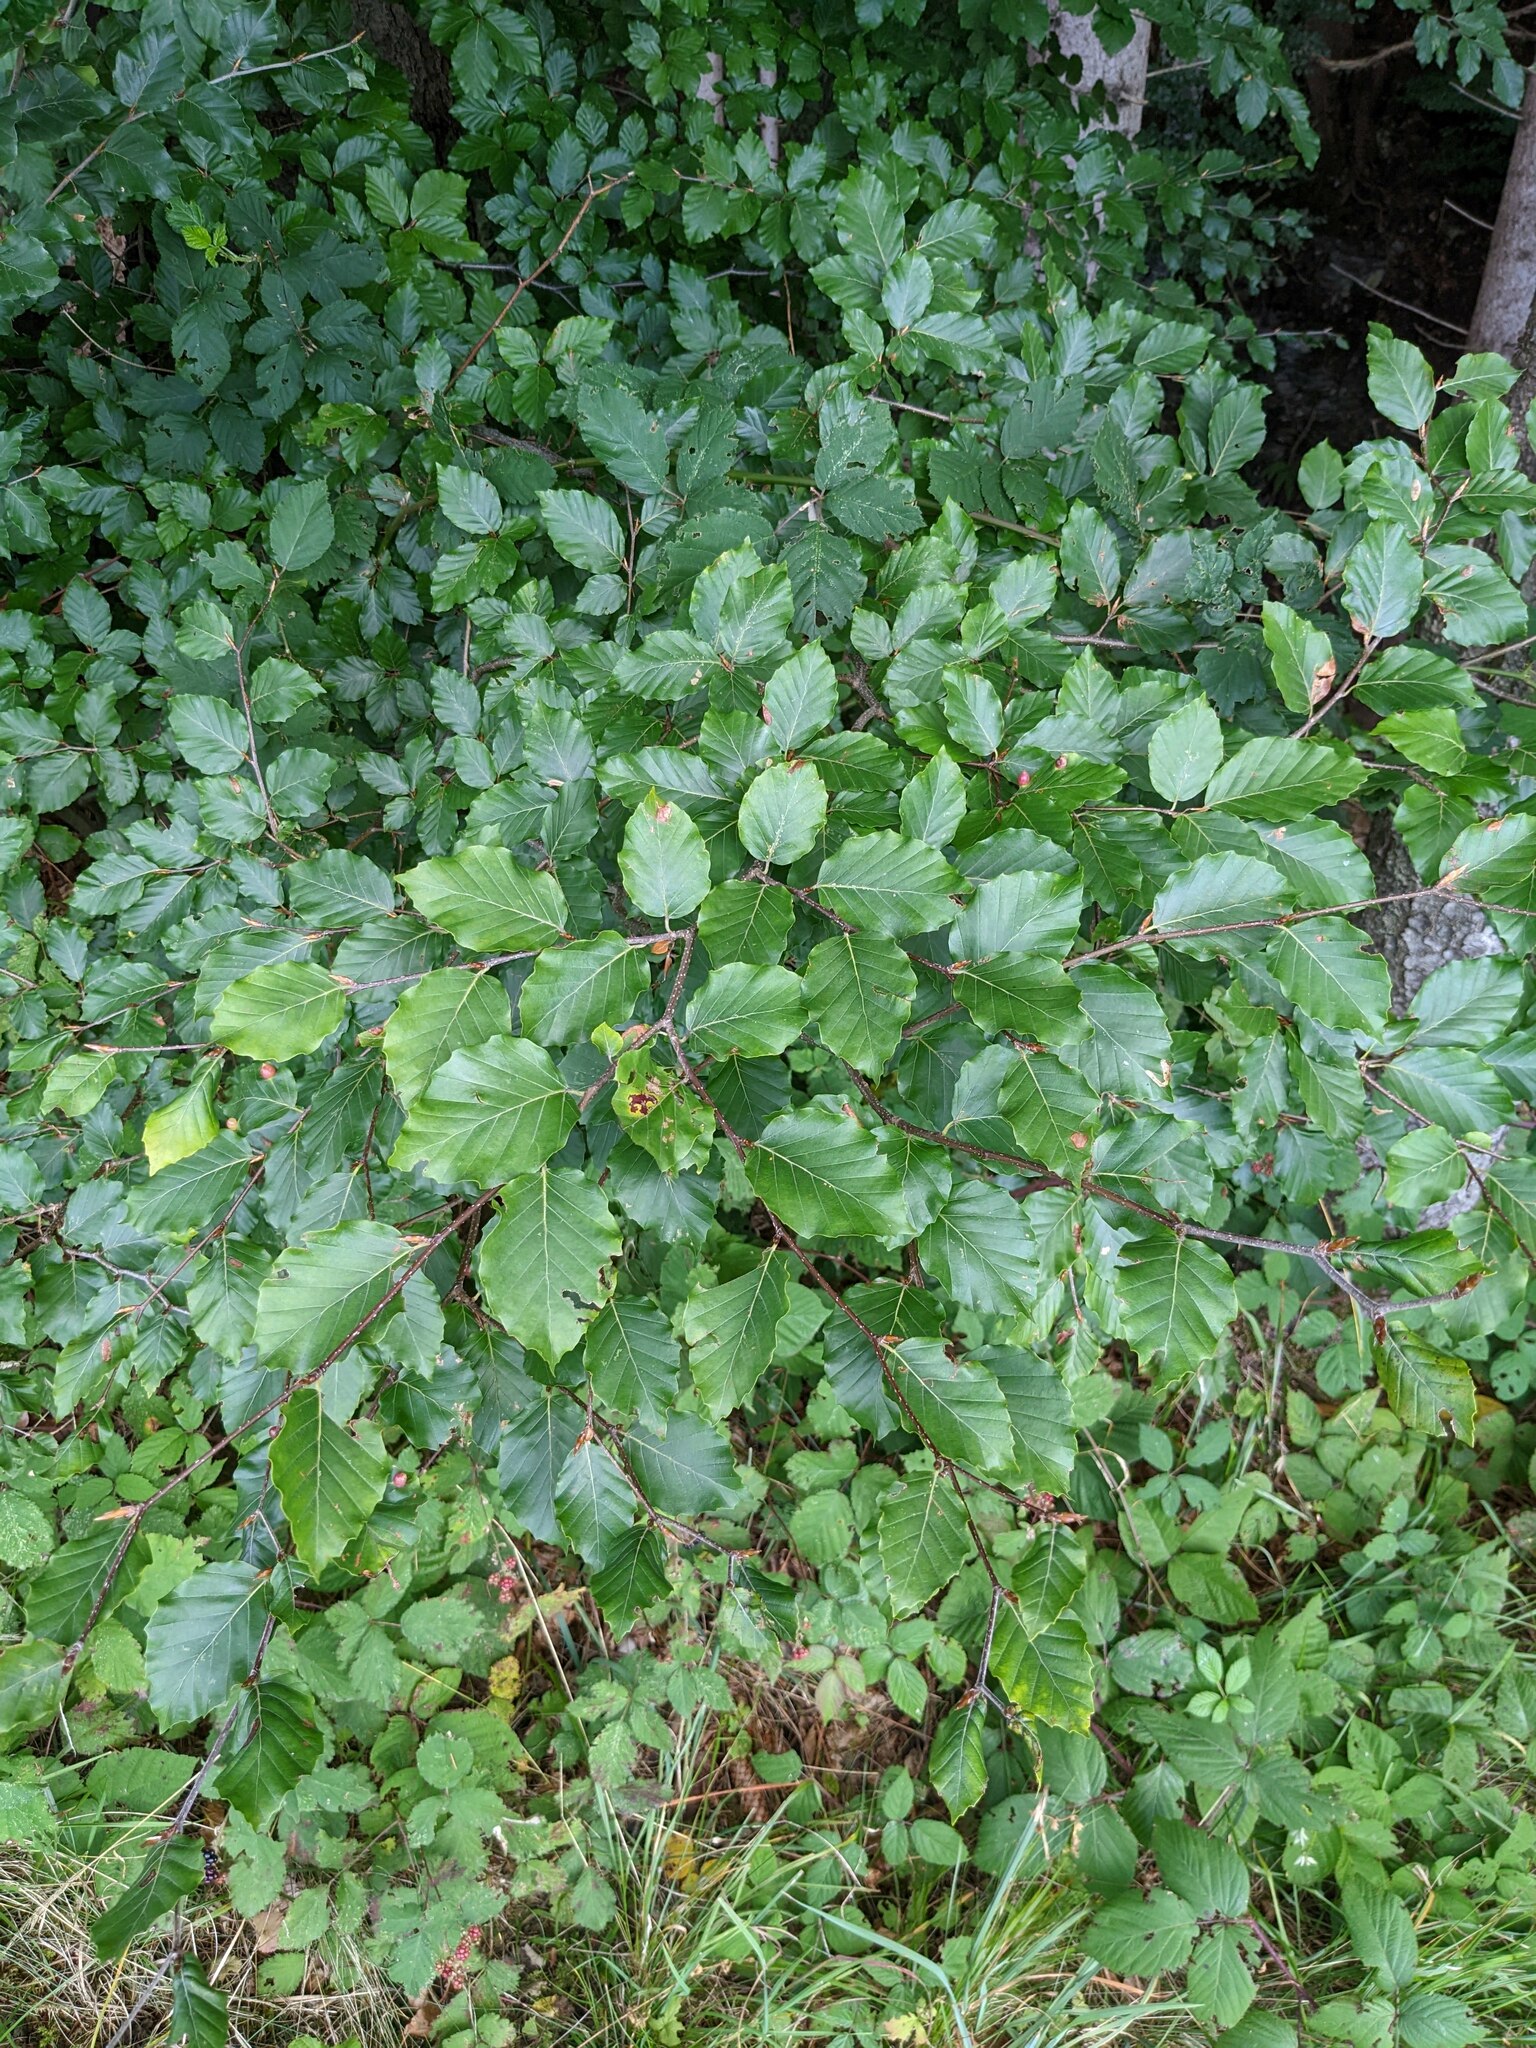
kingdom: Plantae
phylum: Tracheophyta
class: Magnoliopsida
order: Fagales
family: Fagaceae
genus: Fagus
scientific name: Fagus sylvatica
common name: Beech
